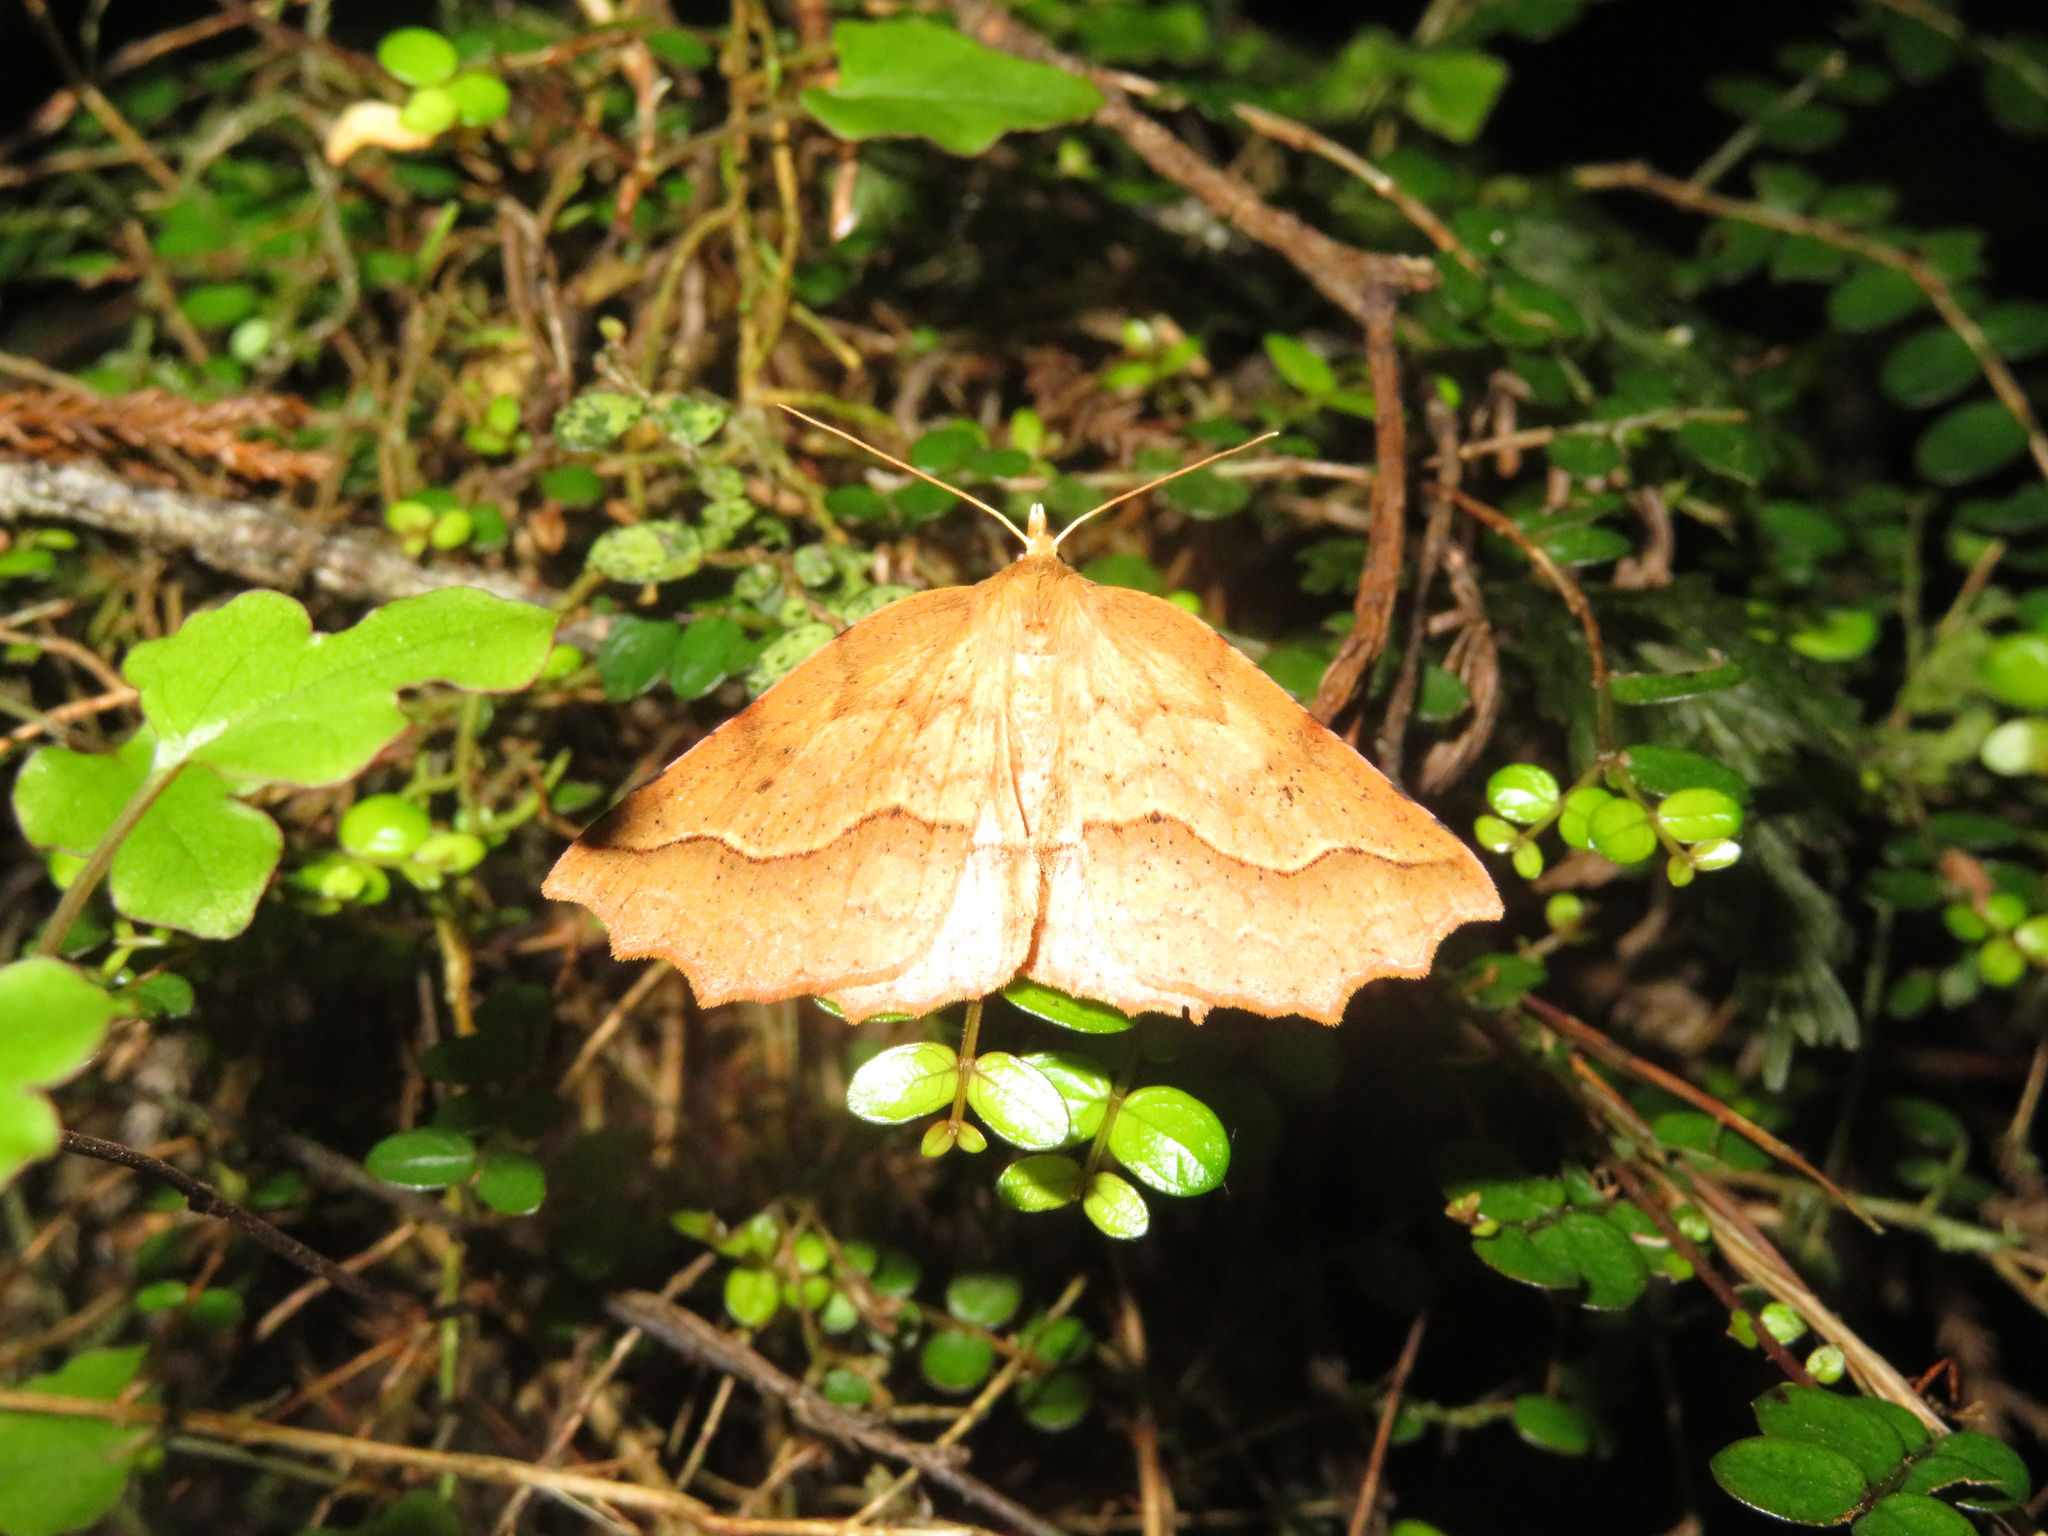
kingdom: Animalia
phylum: Arthropoda
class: Insecta
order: Lepidoptera
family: Geometridae
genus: Ischalis
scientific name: Ischalis variabilis
